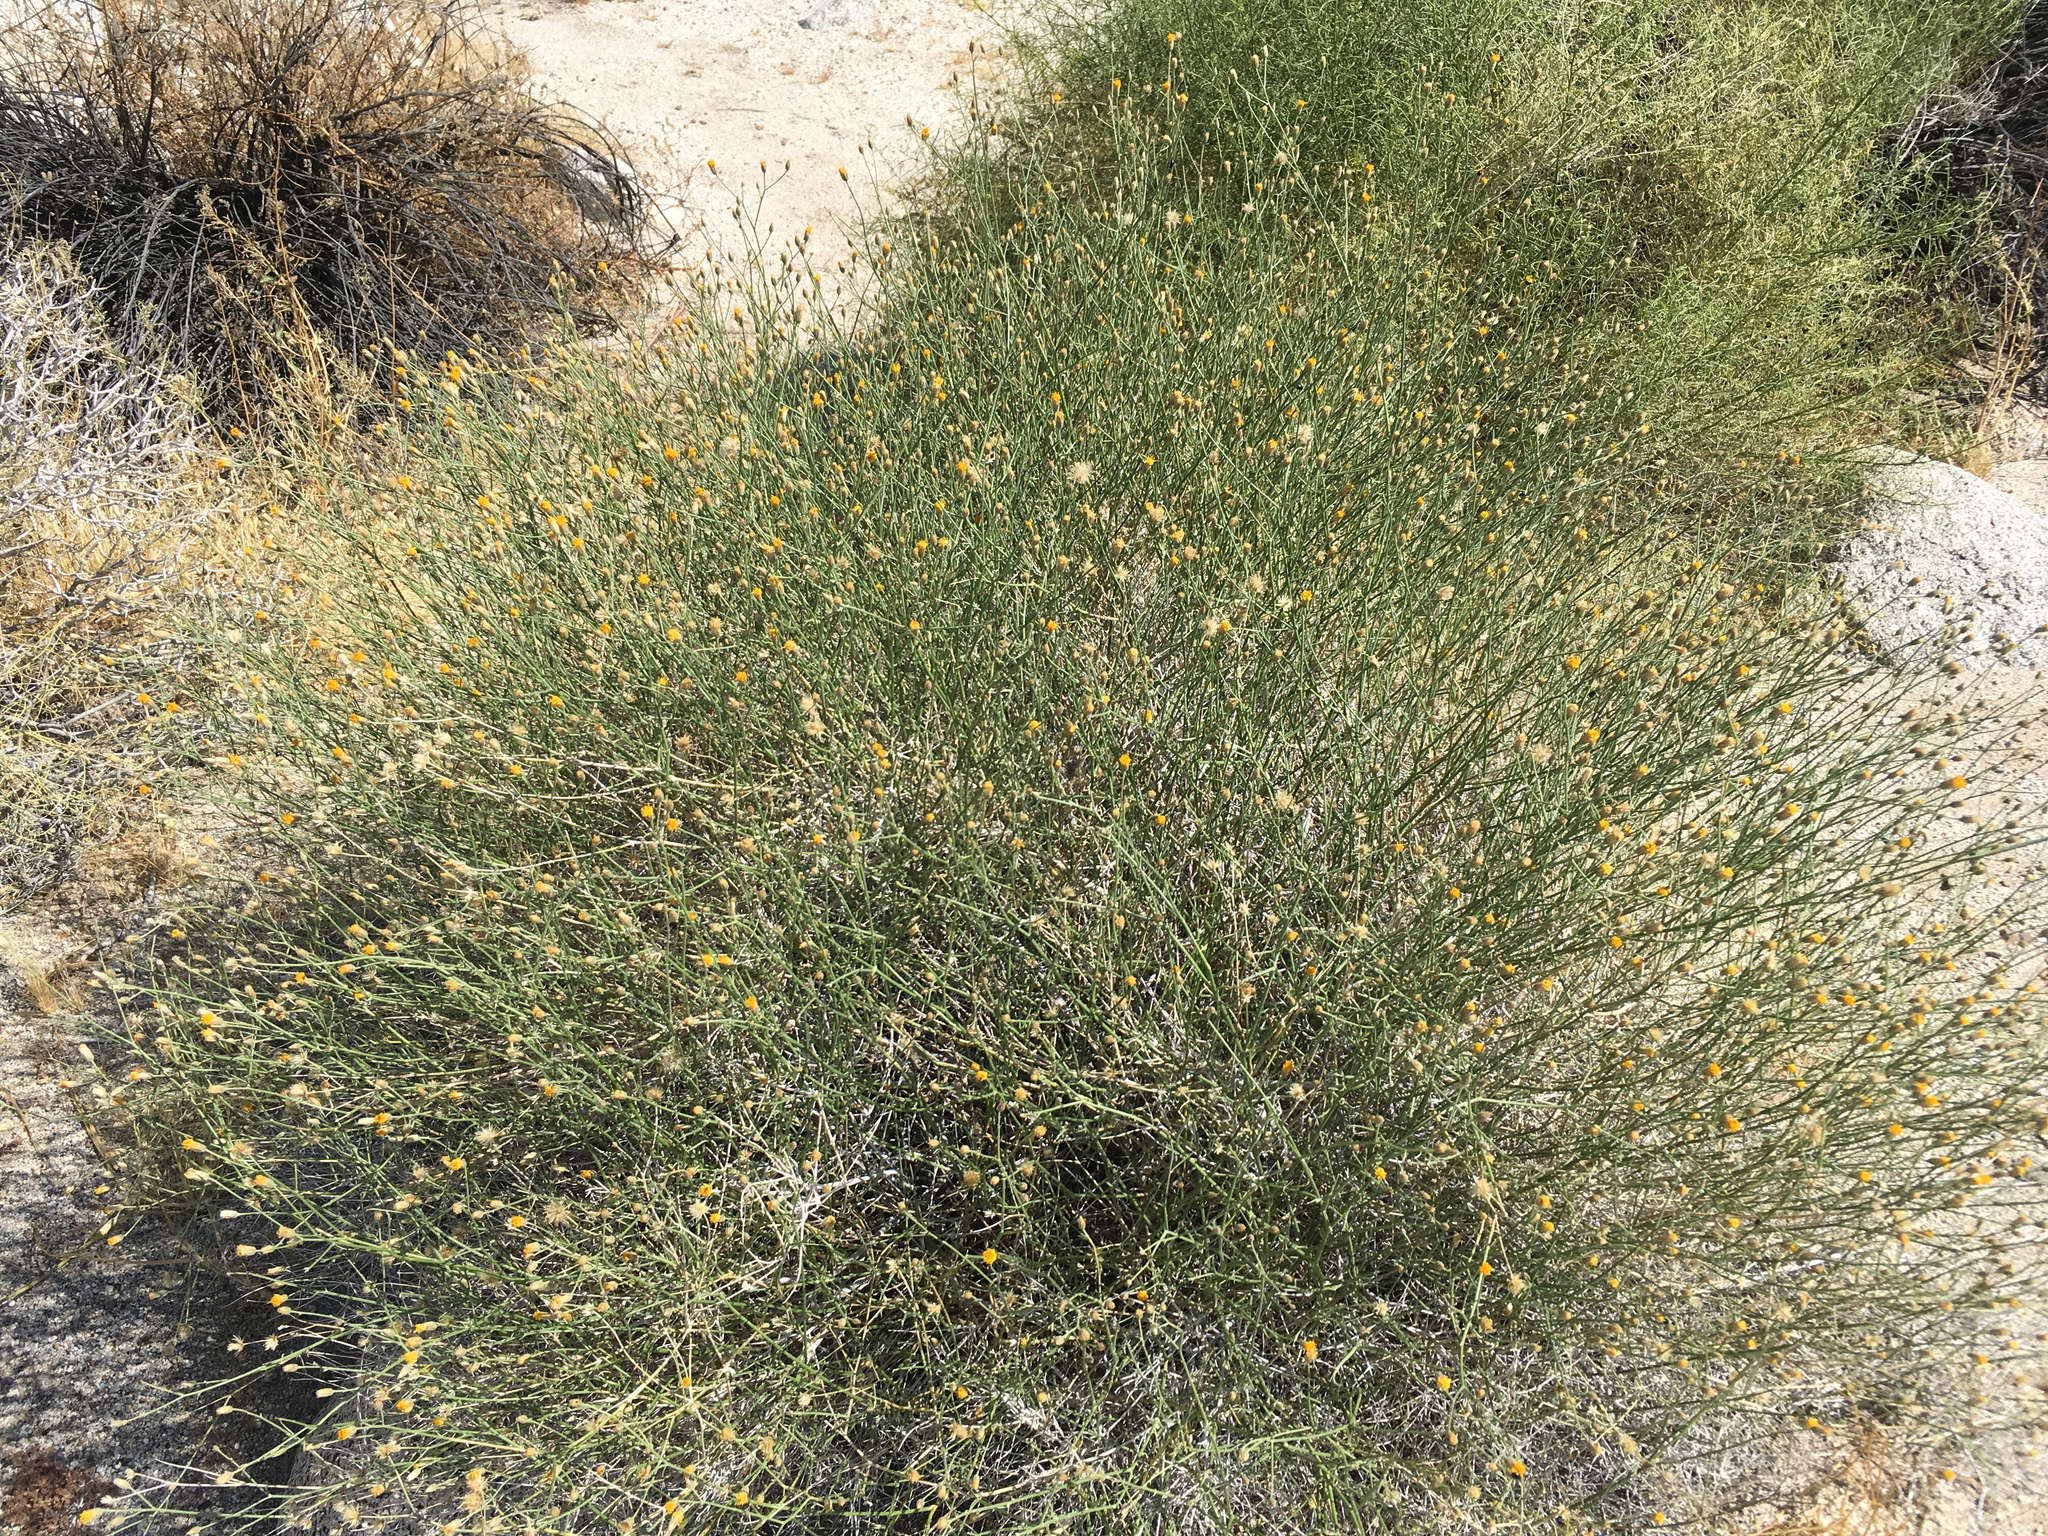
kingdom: Plantae
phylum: Tracheophyta
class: Magnoliopsida
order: Asterales
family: Asteraceae
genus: Bebbia
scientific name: Bebbia juncea
